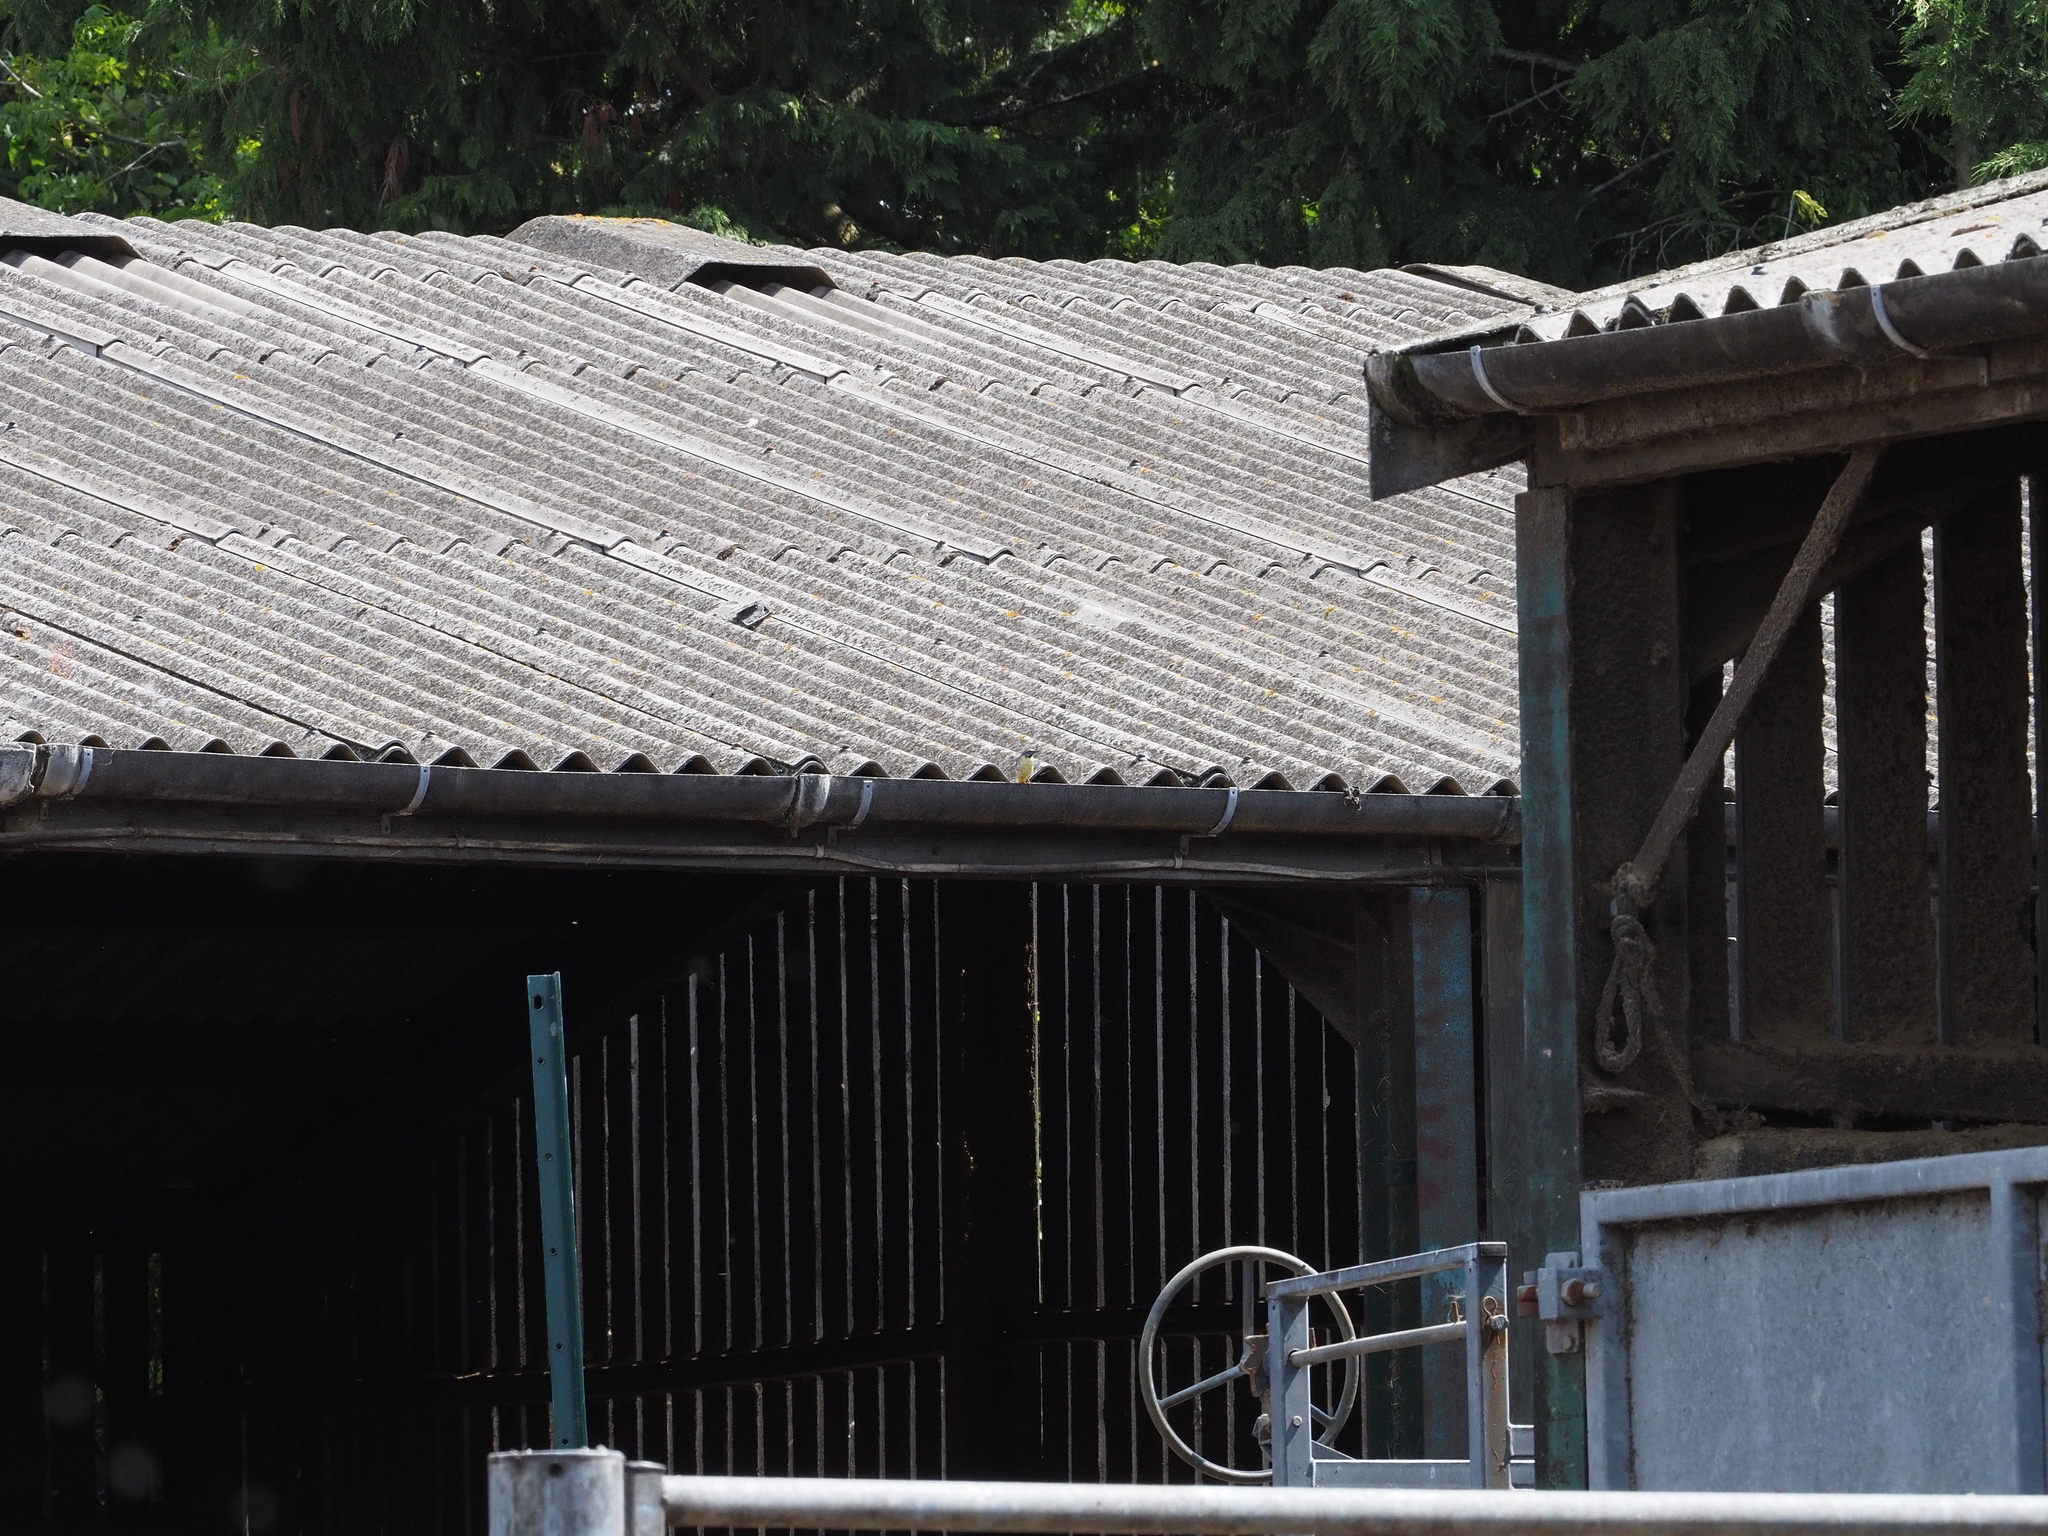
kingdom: Animalia
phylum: Chordata
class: Aves
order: Passeriformes
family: Motacillidae
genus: Motacilla
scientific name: Motacilla cinerea
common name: Grey wagtail
